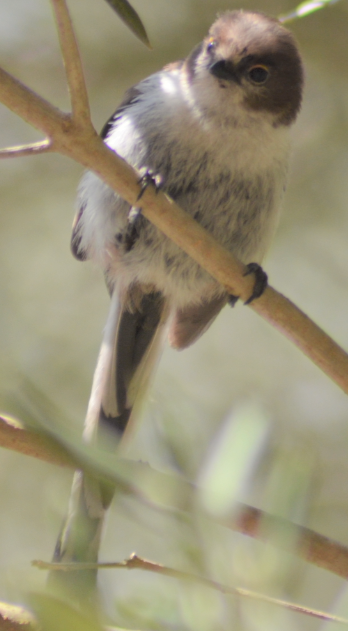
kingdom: Animalia
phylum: Chordata
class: Aves
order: Passeriformes
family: Aegithalidae
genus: Aegithalos
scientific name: Aegithalos caudatus
